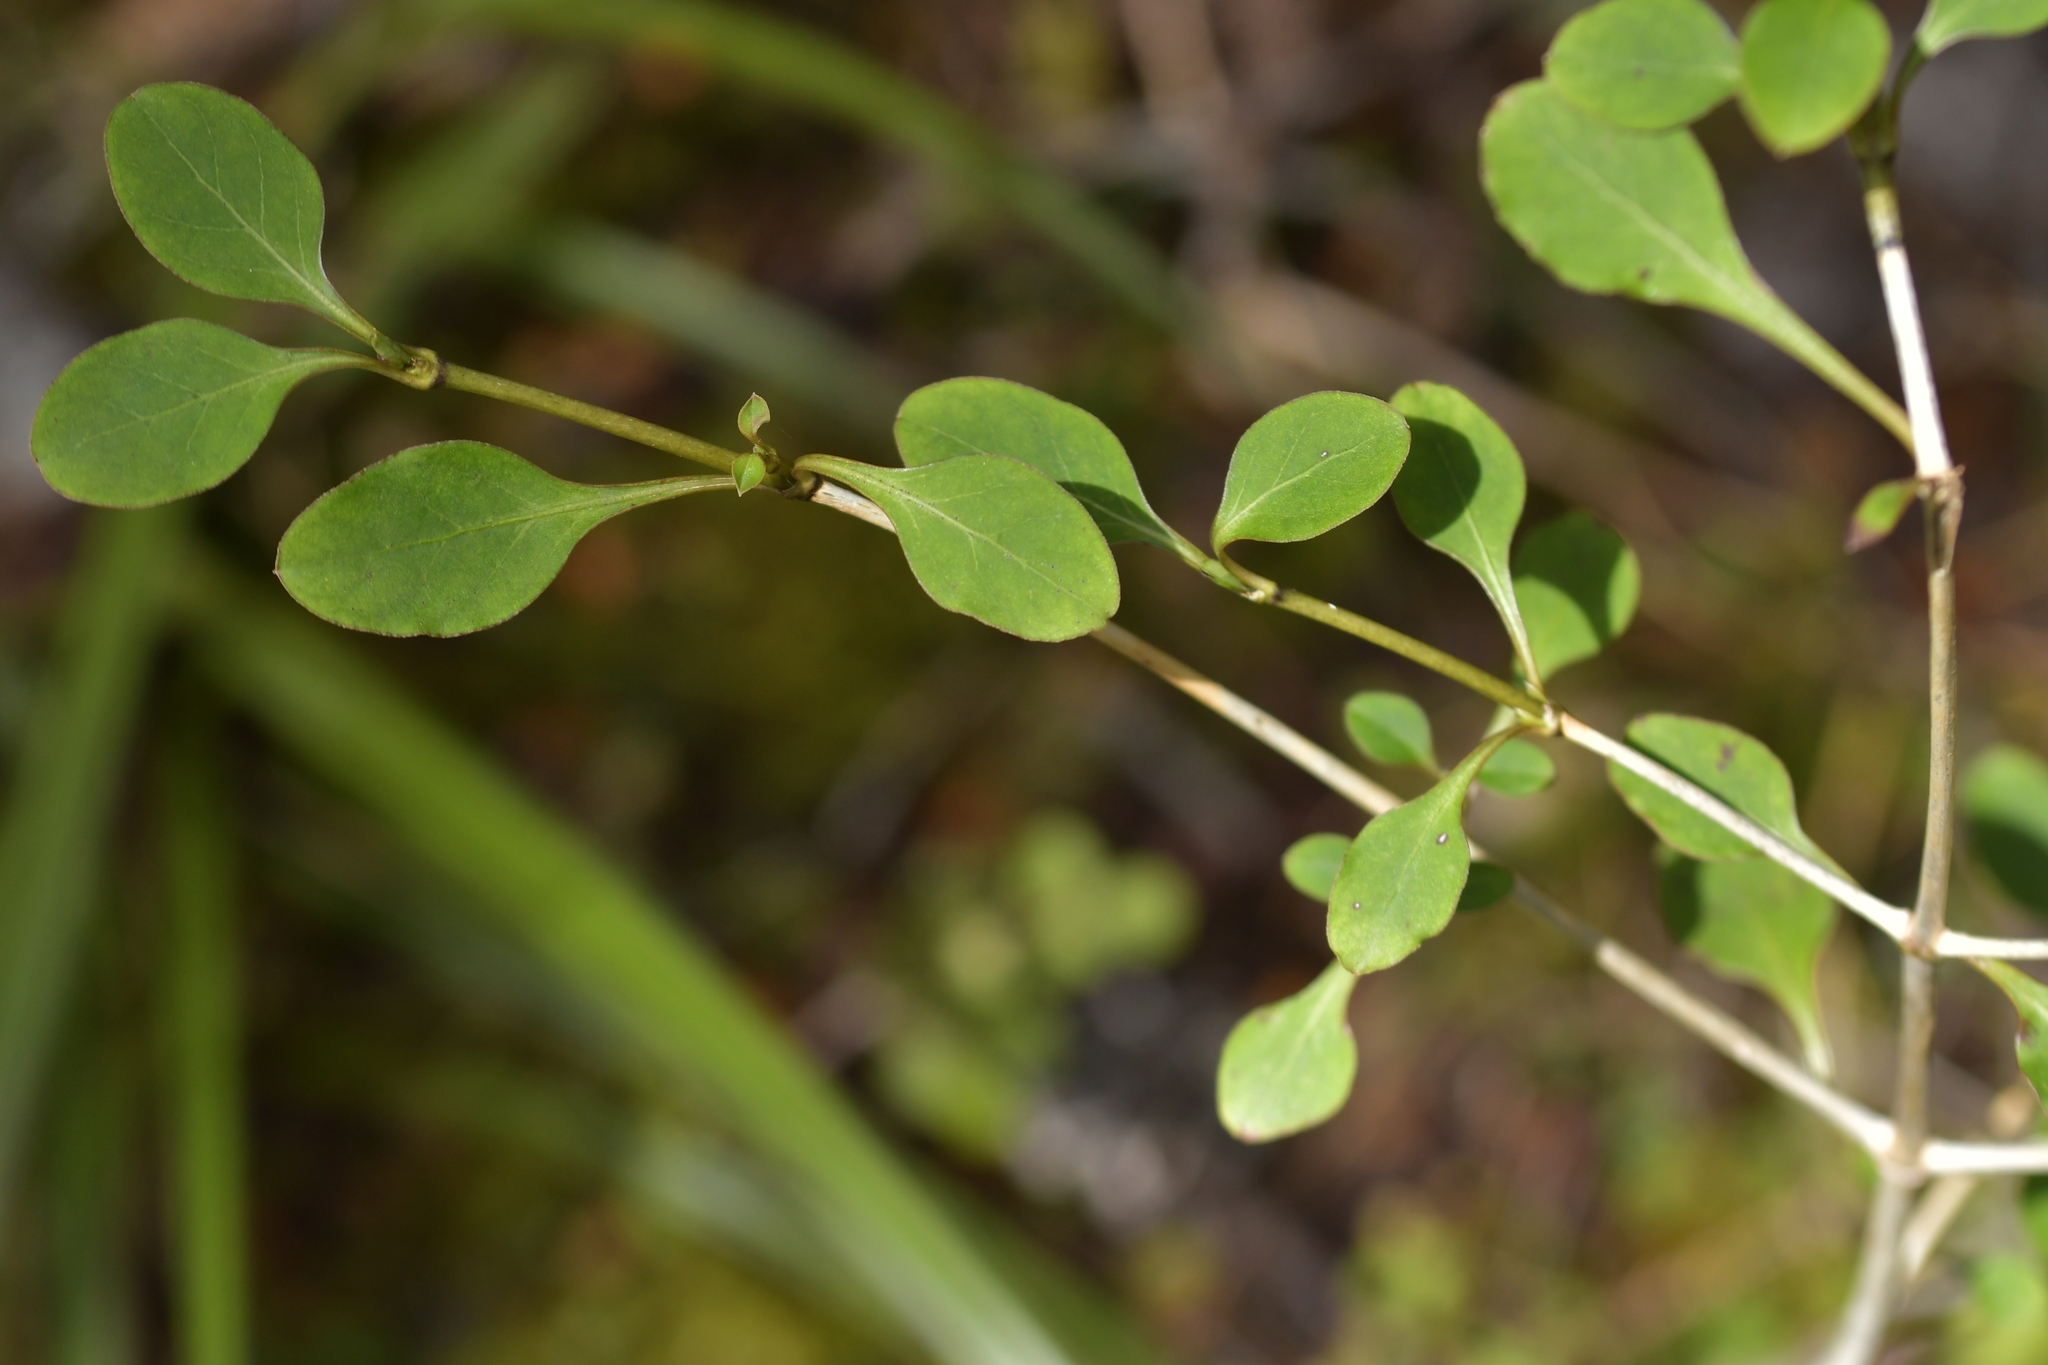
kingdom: Plantae
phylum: Tracheophyta
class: Magnoliopsida
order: Gentianales
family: Rubiaceae
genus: Coprosma
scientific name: Coprosma foetidissima
